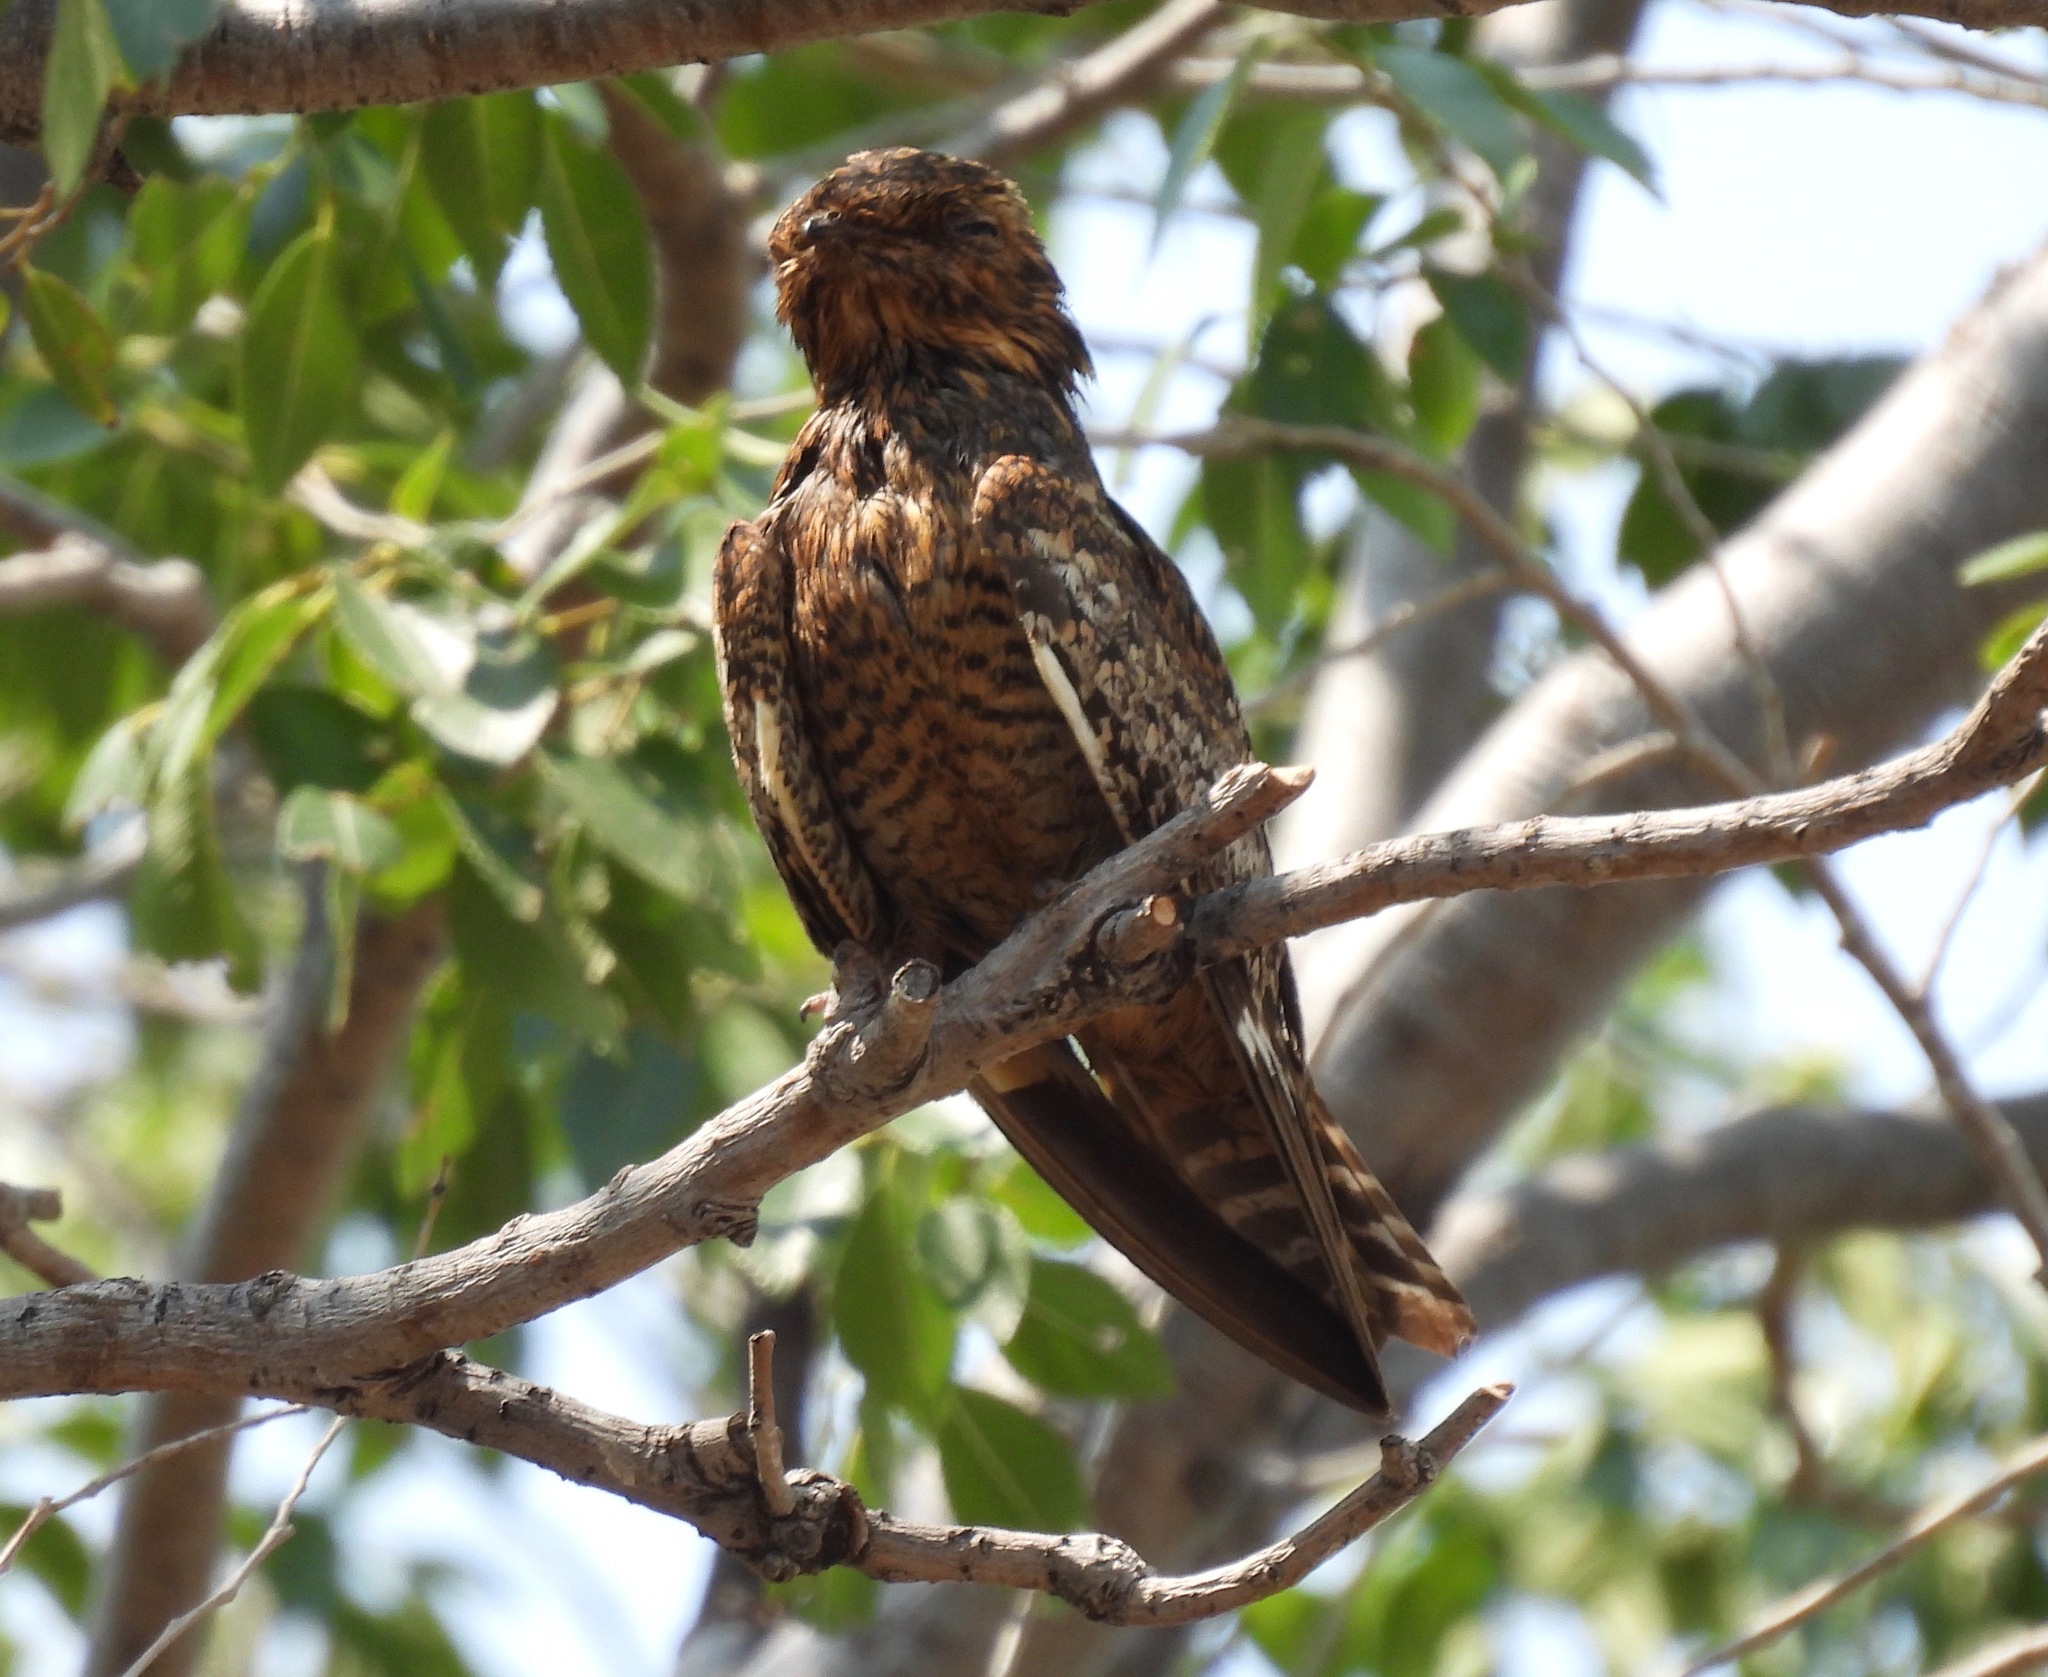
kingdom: Animalia
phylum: Chordata
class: Aves
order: Caprimulgiformes
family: Caprimulgidae
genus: Chordeiles
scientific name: Chordeiles minor
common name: Common nighthawk
